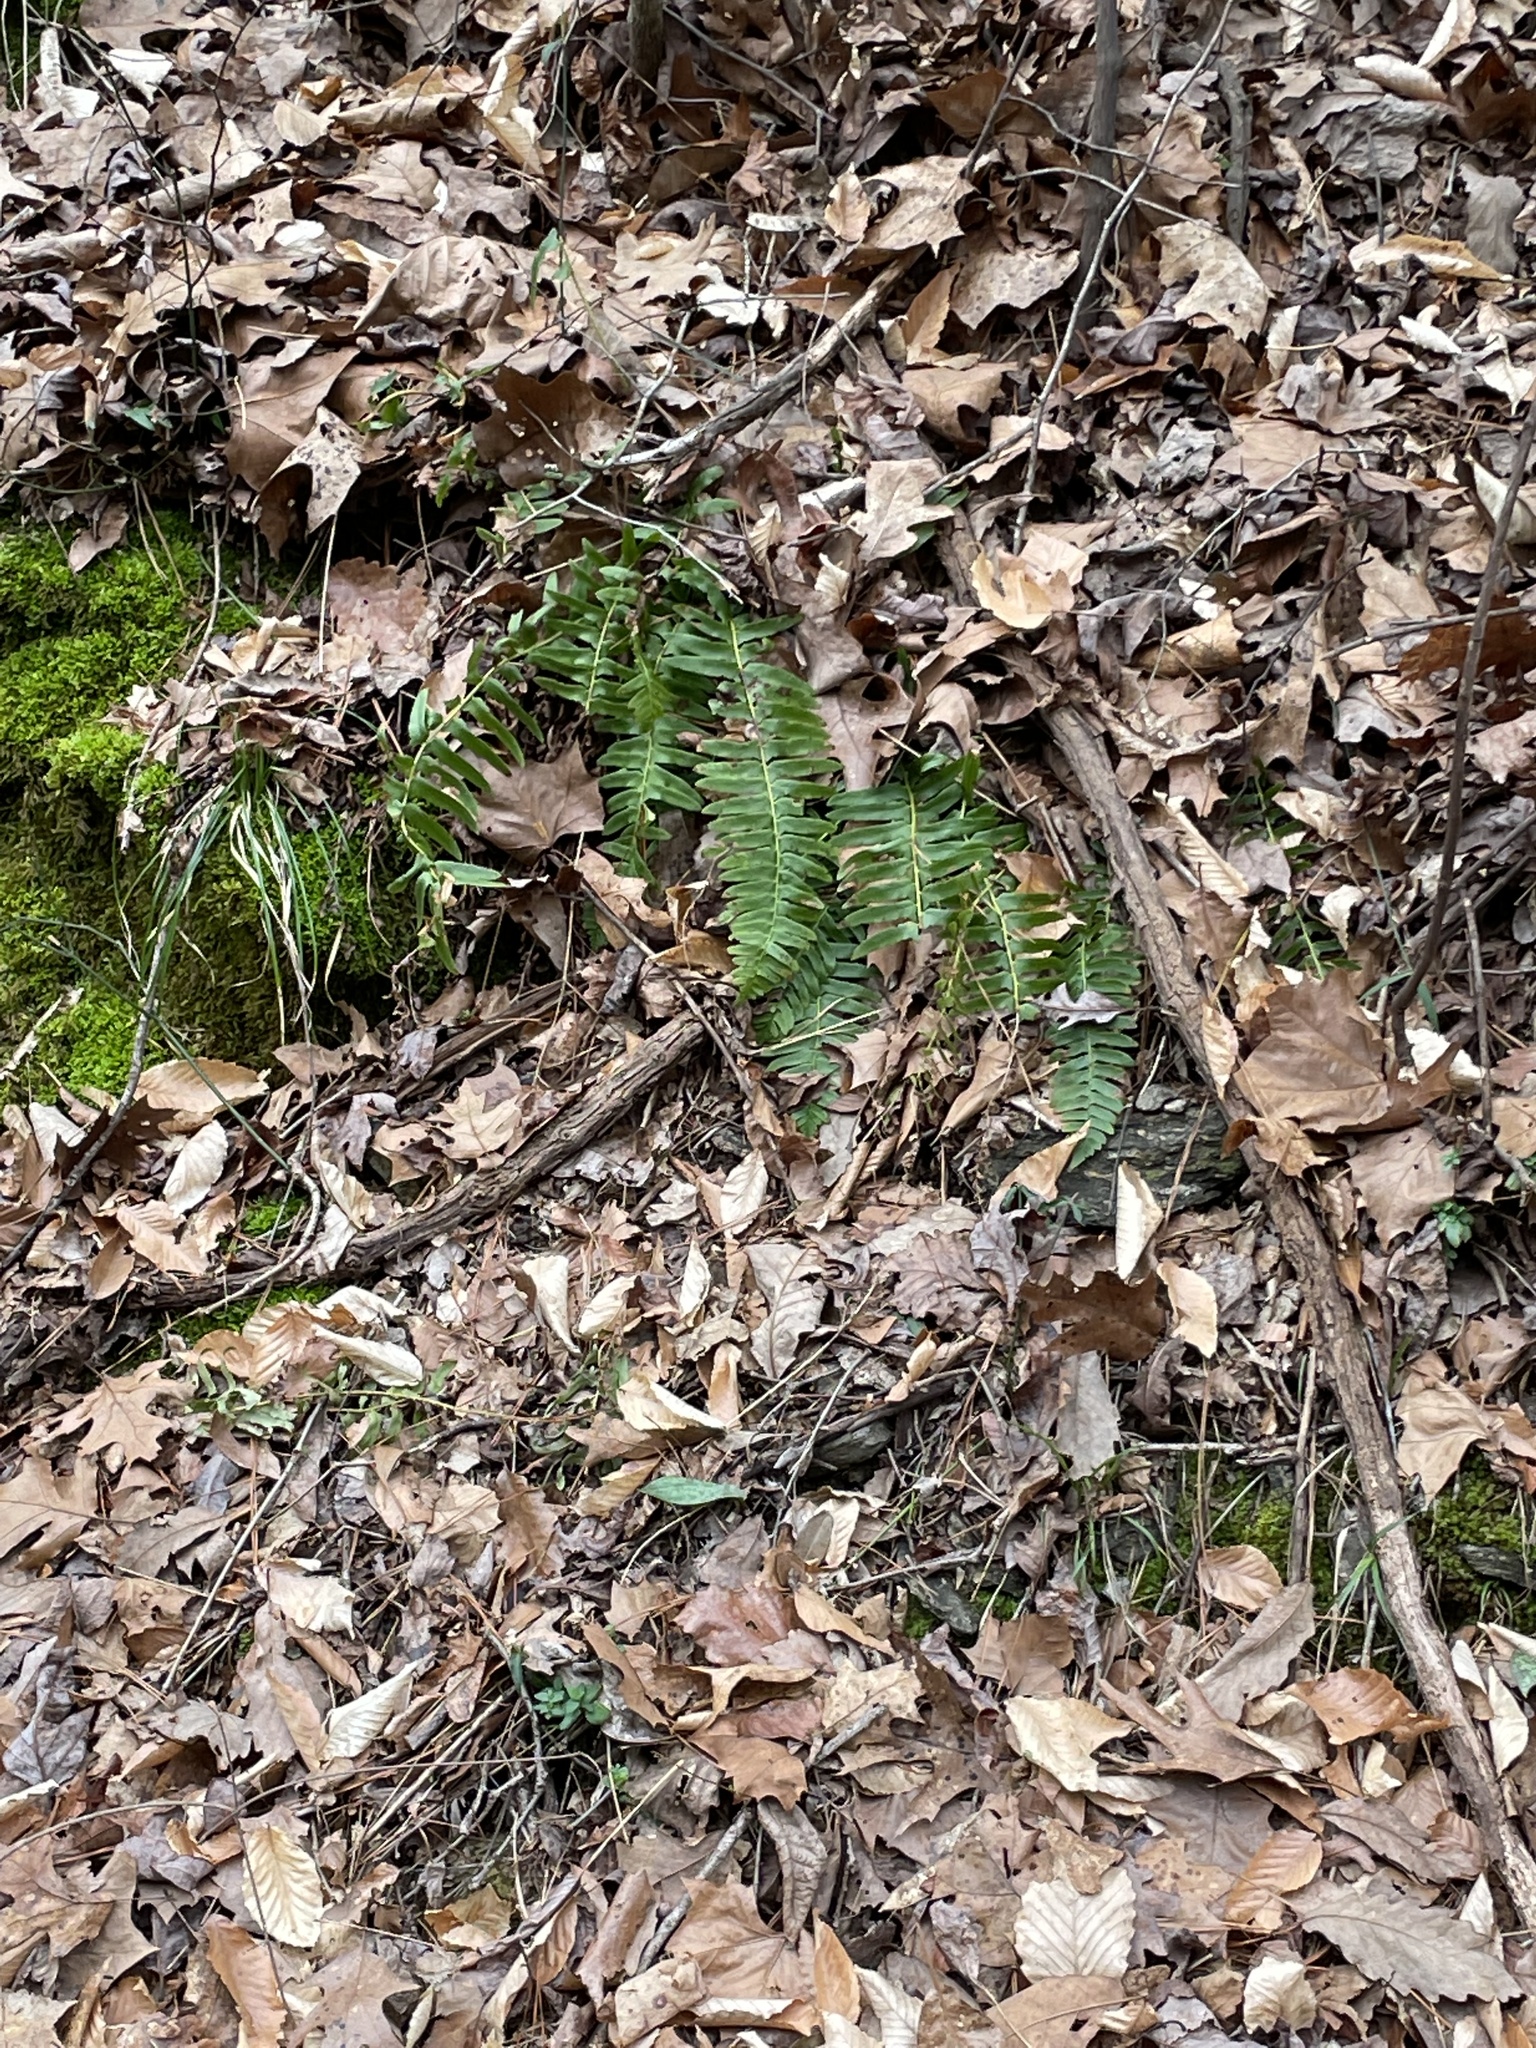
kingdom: Plantae
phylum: Tracheophyta
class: Polypodiopsida
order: Polypodiales
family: Dryopteridaceae
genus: Polystichum
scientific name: Polystichum acrostichoides
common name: Christmas fern
